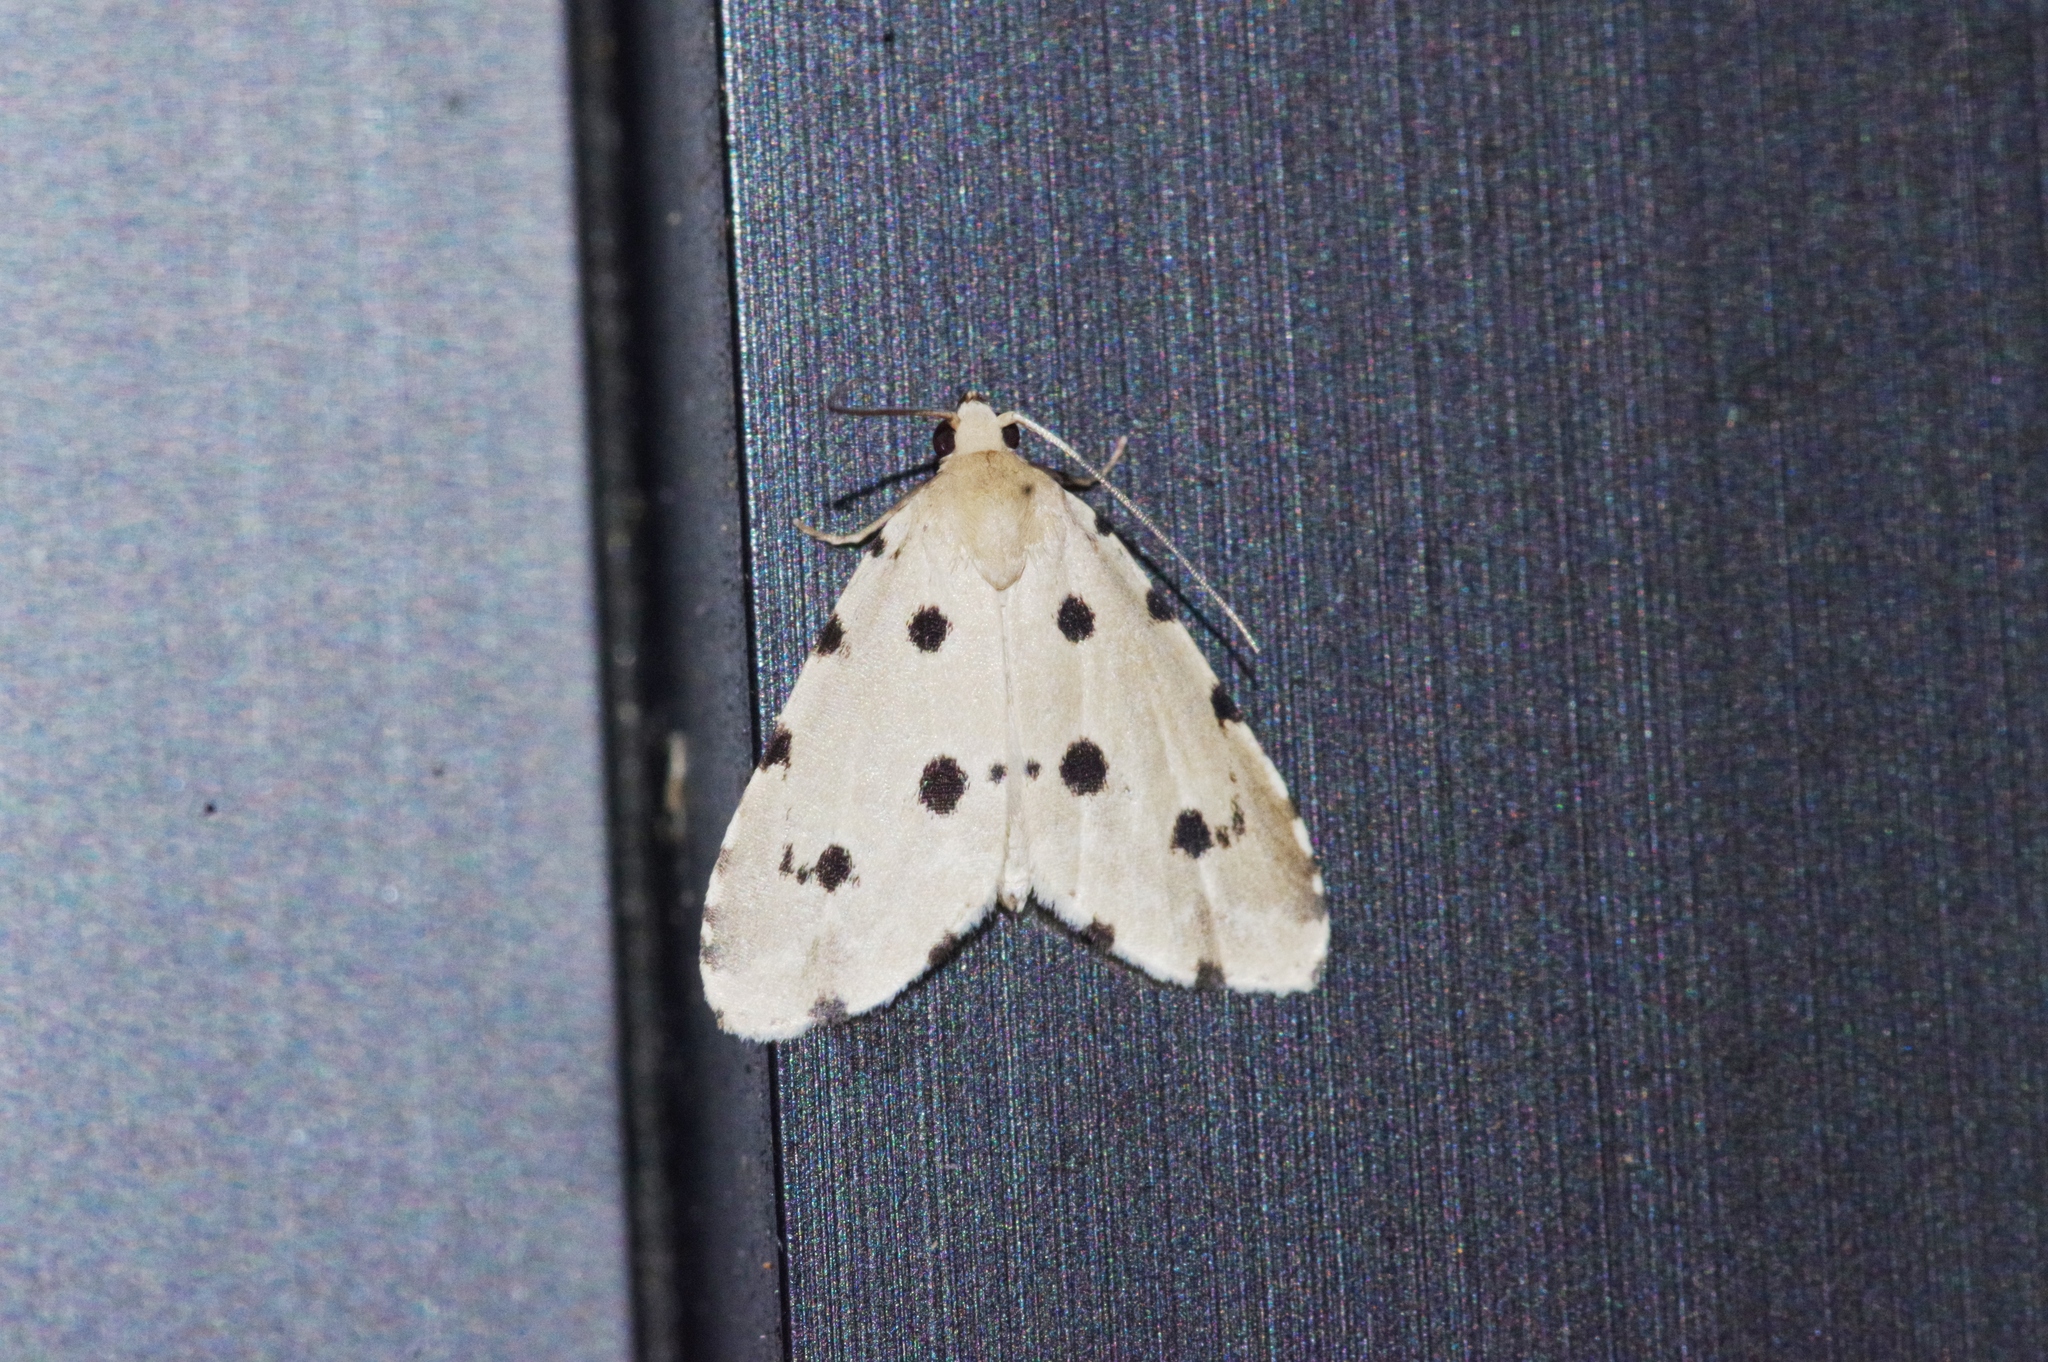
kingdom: Animalia
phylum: Arthropoda
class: Insecta
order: Lepidoptera
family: Noctuidae
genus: Metaemene
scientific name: Metaemene atrigutta
